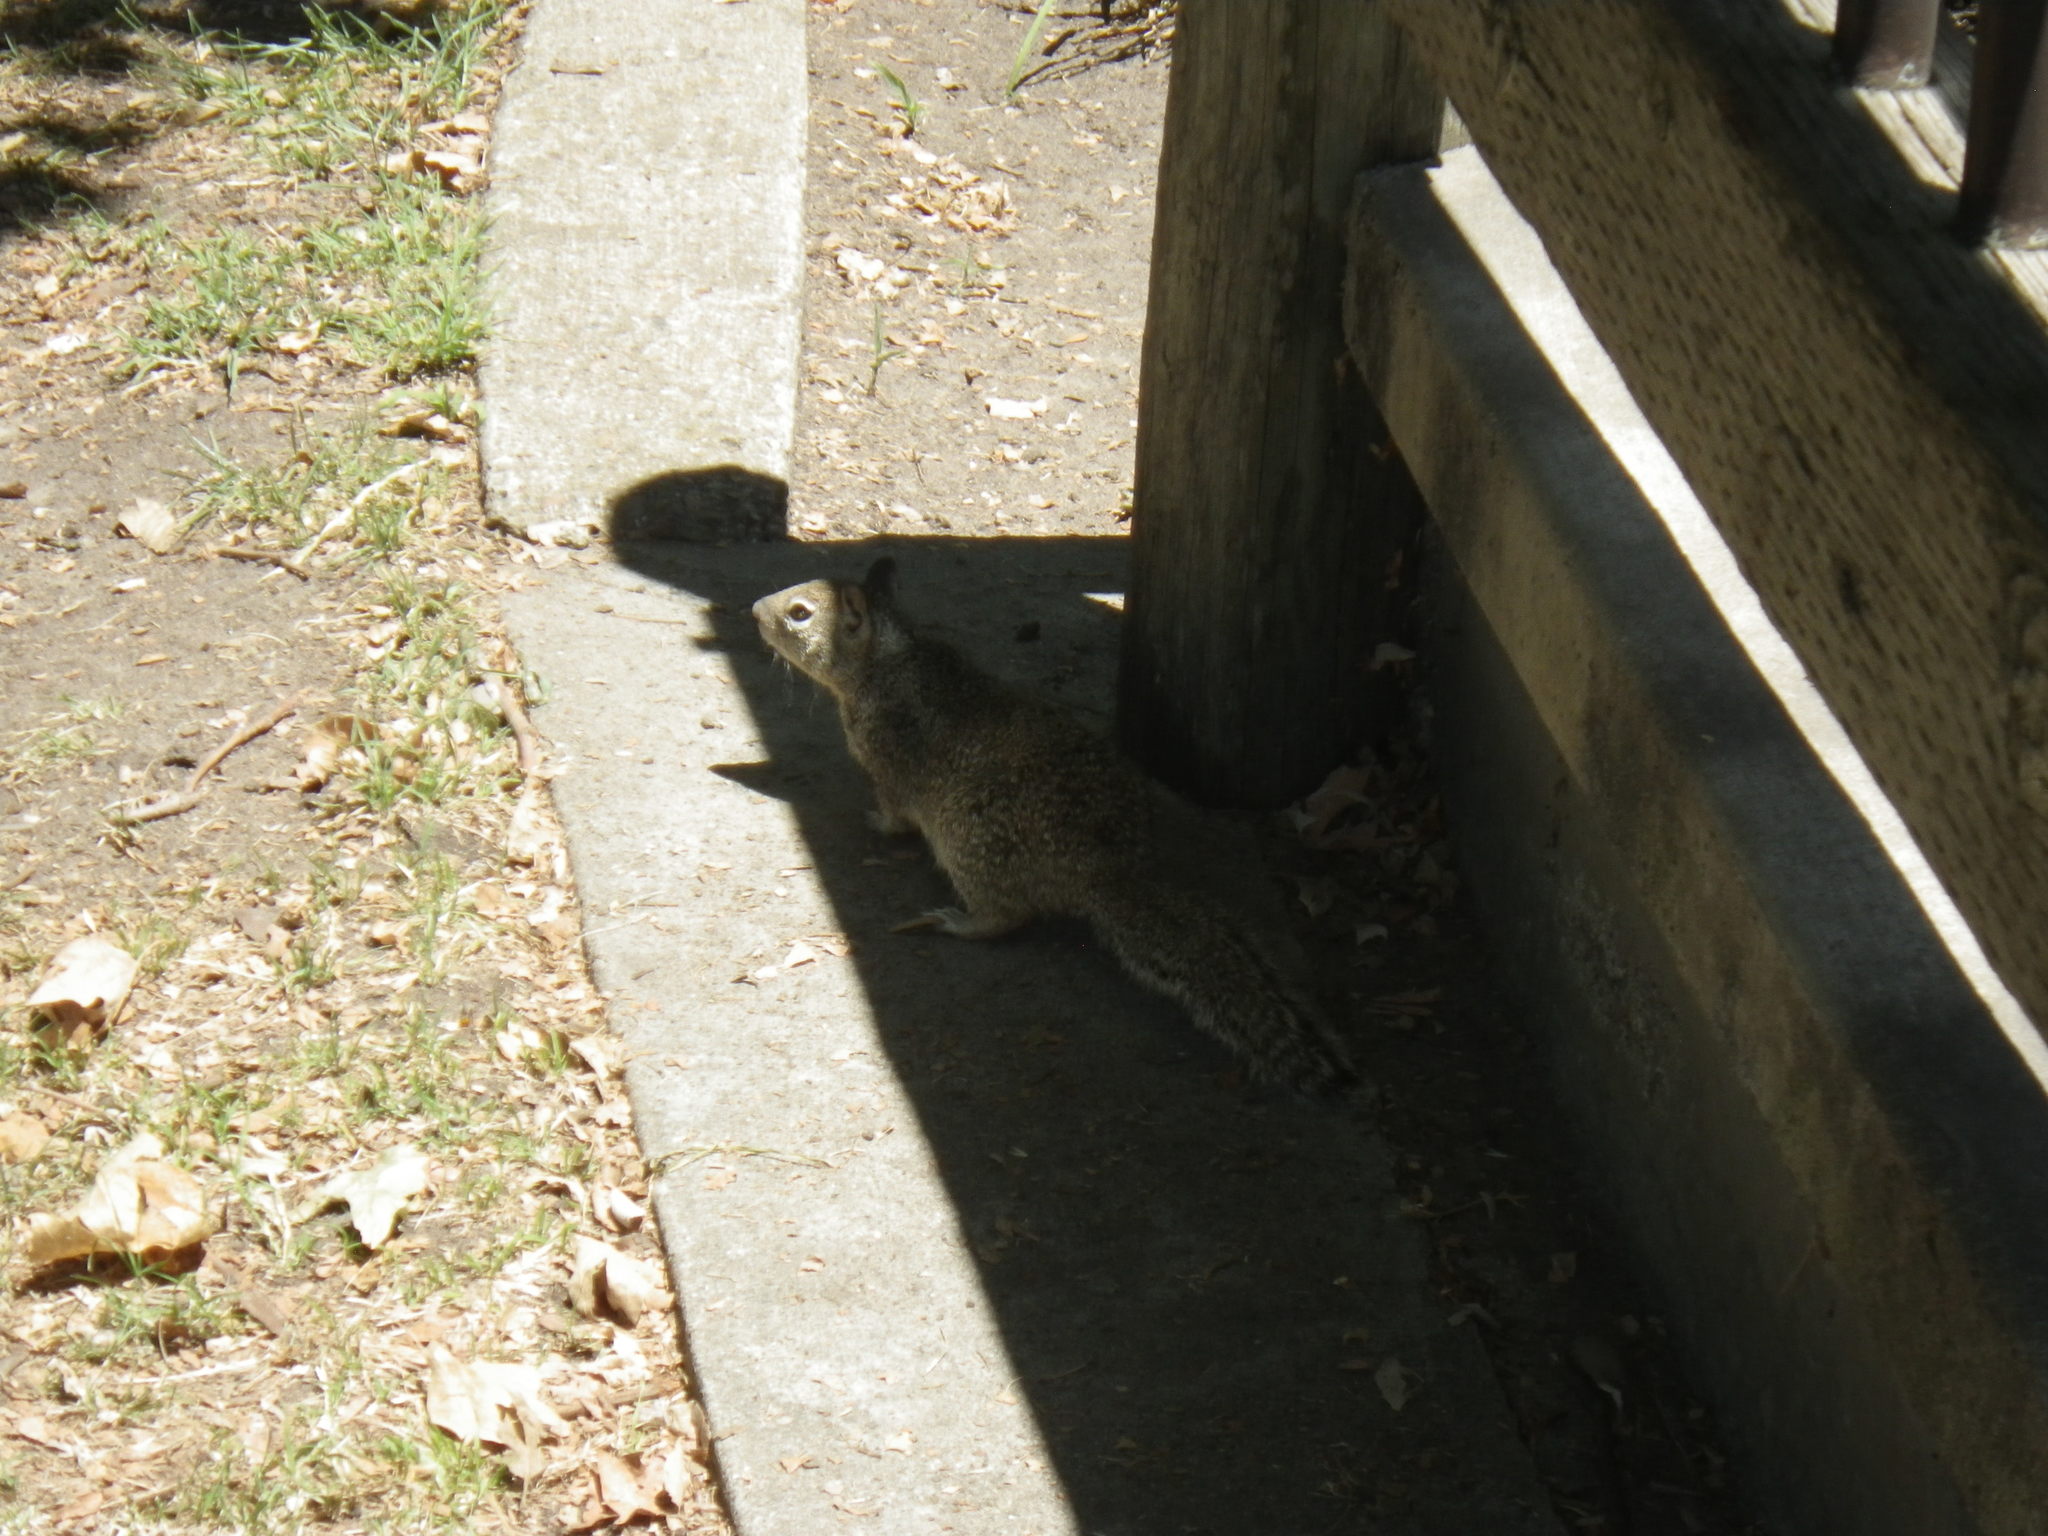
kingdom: Animalia
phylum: Chordata
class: Mammalia
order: Rodentia
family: Sciuridae
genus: Otospermophilus
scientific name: Otospermophilus beecheyi
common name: California ground squirrel
